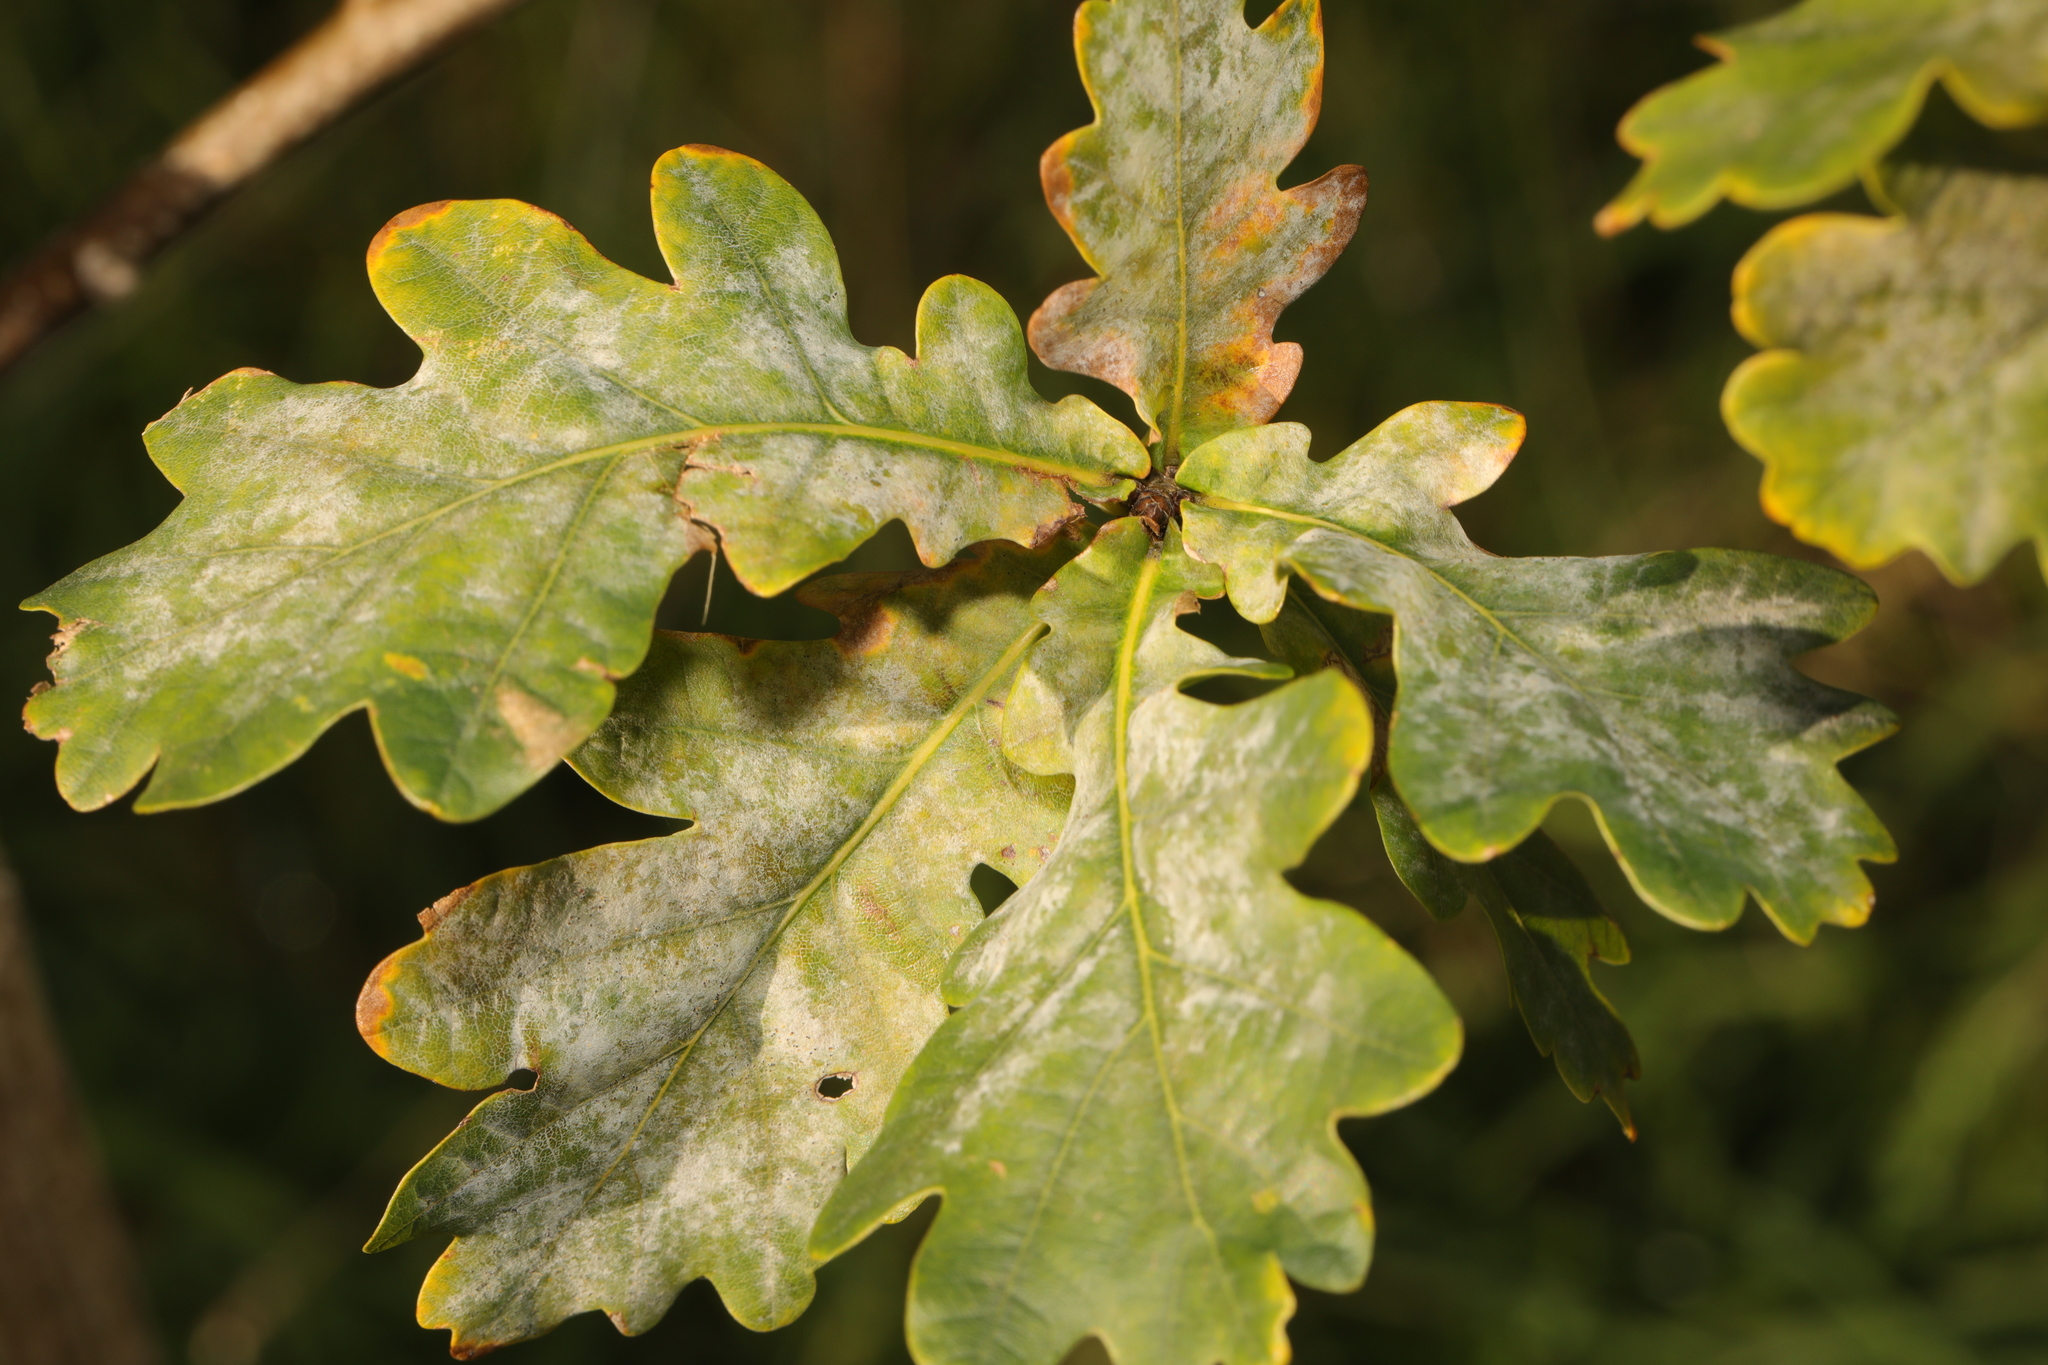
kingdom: Plantae
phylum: Tracheophyta
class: Magnoliopsida
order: Fagales
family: Fagaceae
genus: Quercus
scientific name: Quercus robur
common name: Pedunculate oak
